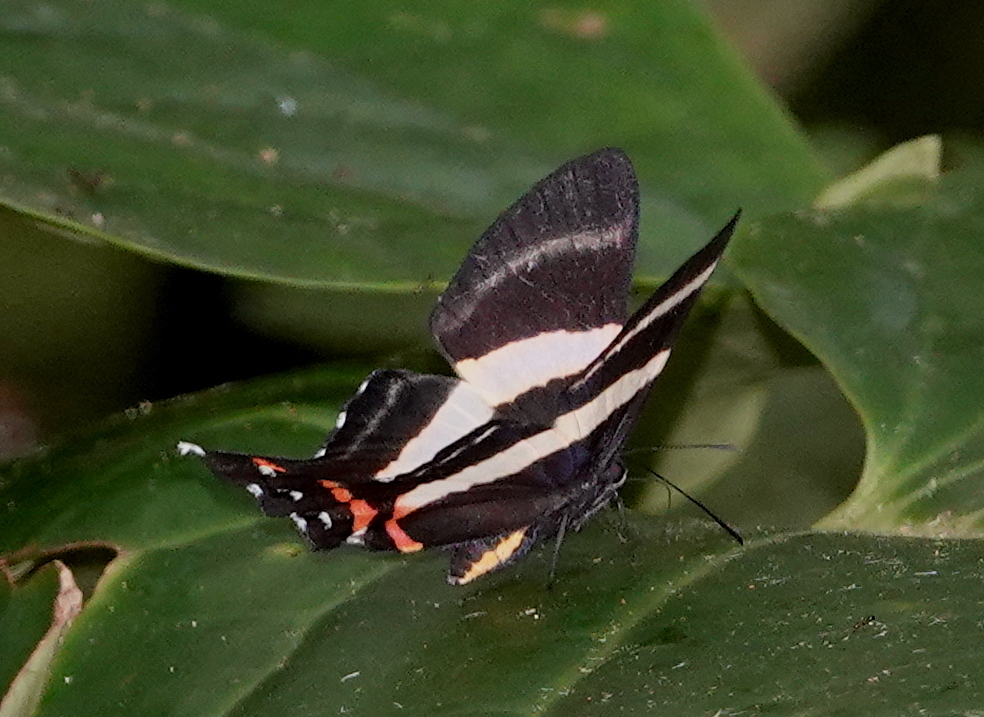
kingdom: Animalia
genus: Ancyluris
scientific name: Ancyluris aulestes
